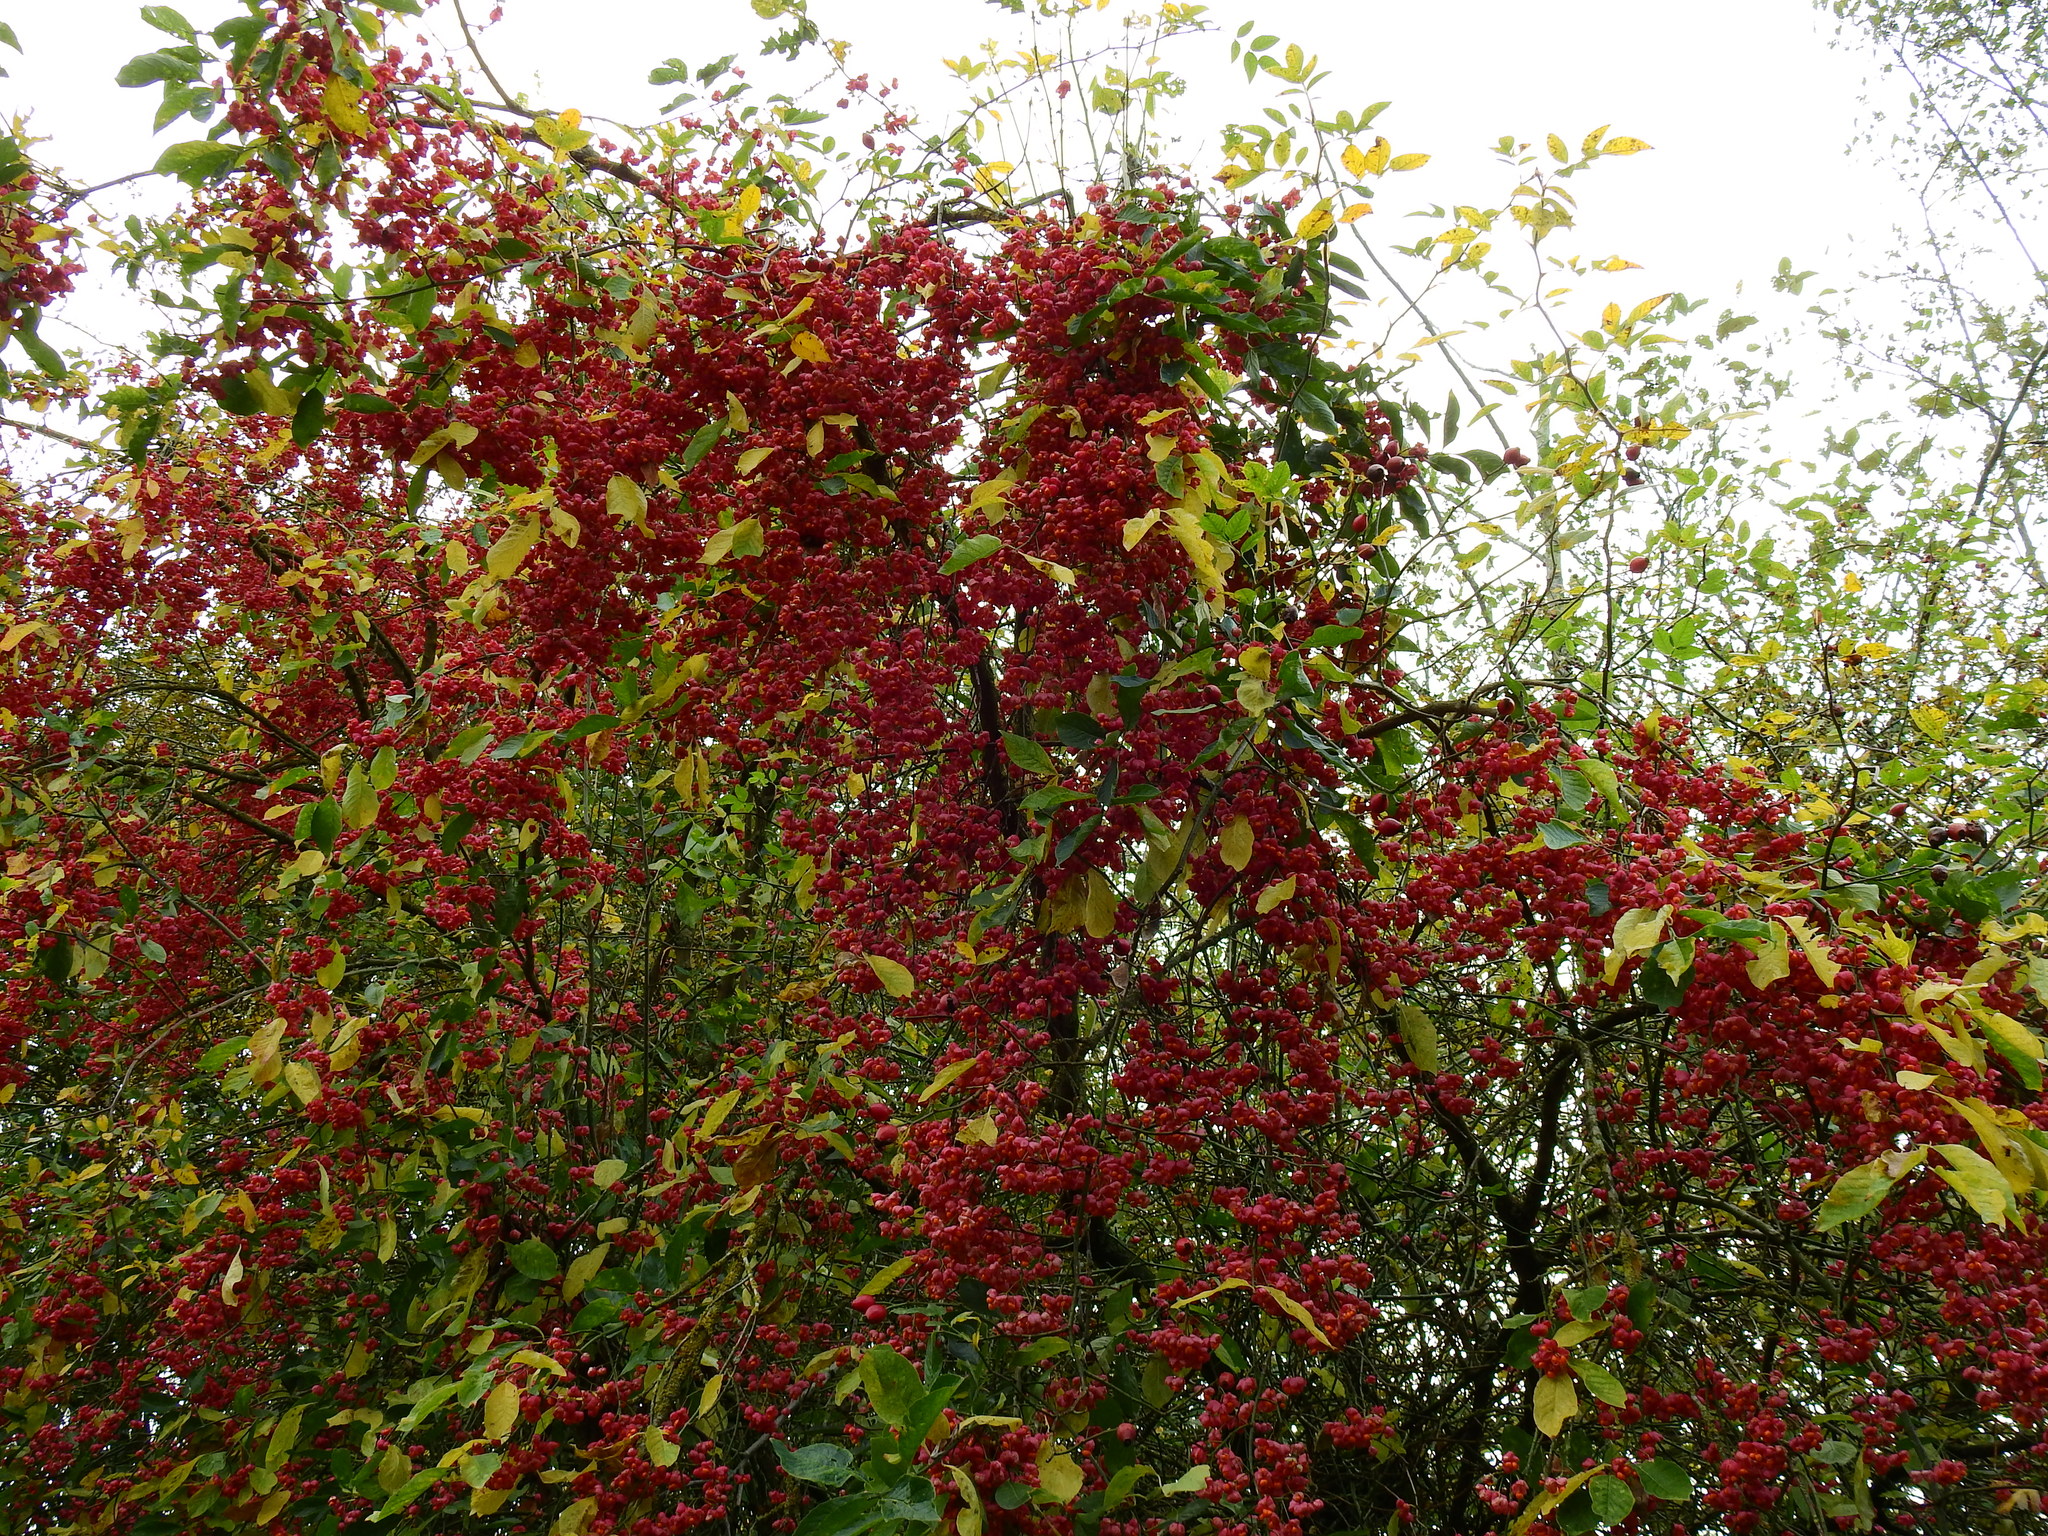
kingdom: Plantae
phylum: Tracheophyta
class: Magnoliopsida
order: Celastrales
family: Celastraceae
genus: Euonymus
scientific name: Euonymus europaeus
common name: Spindle
